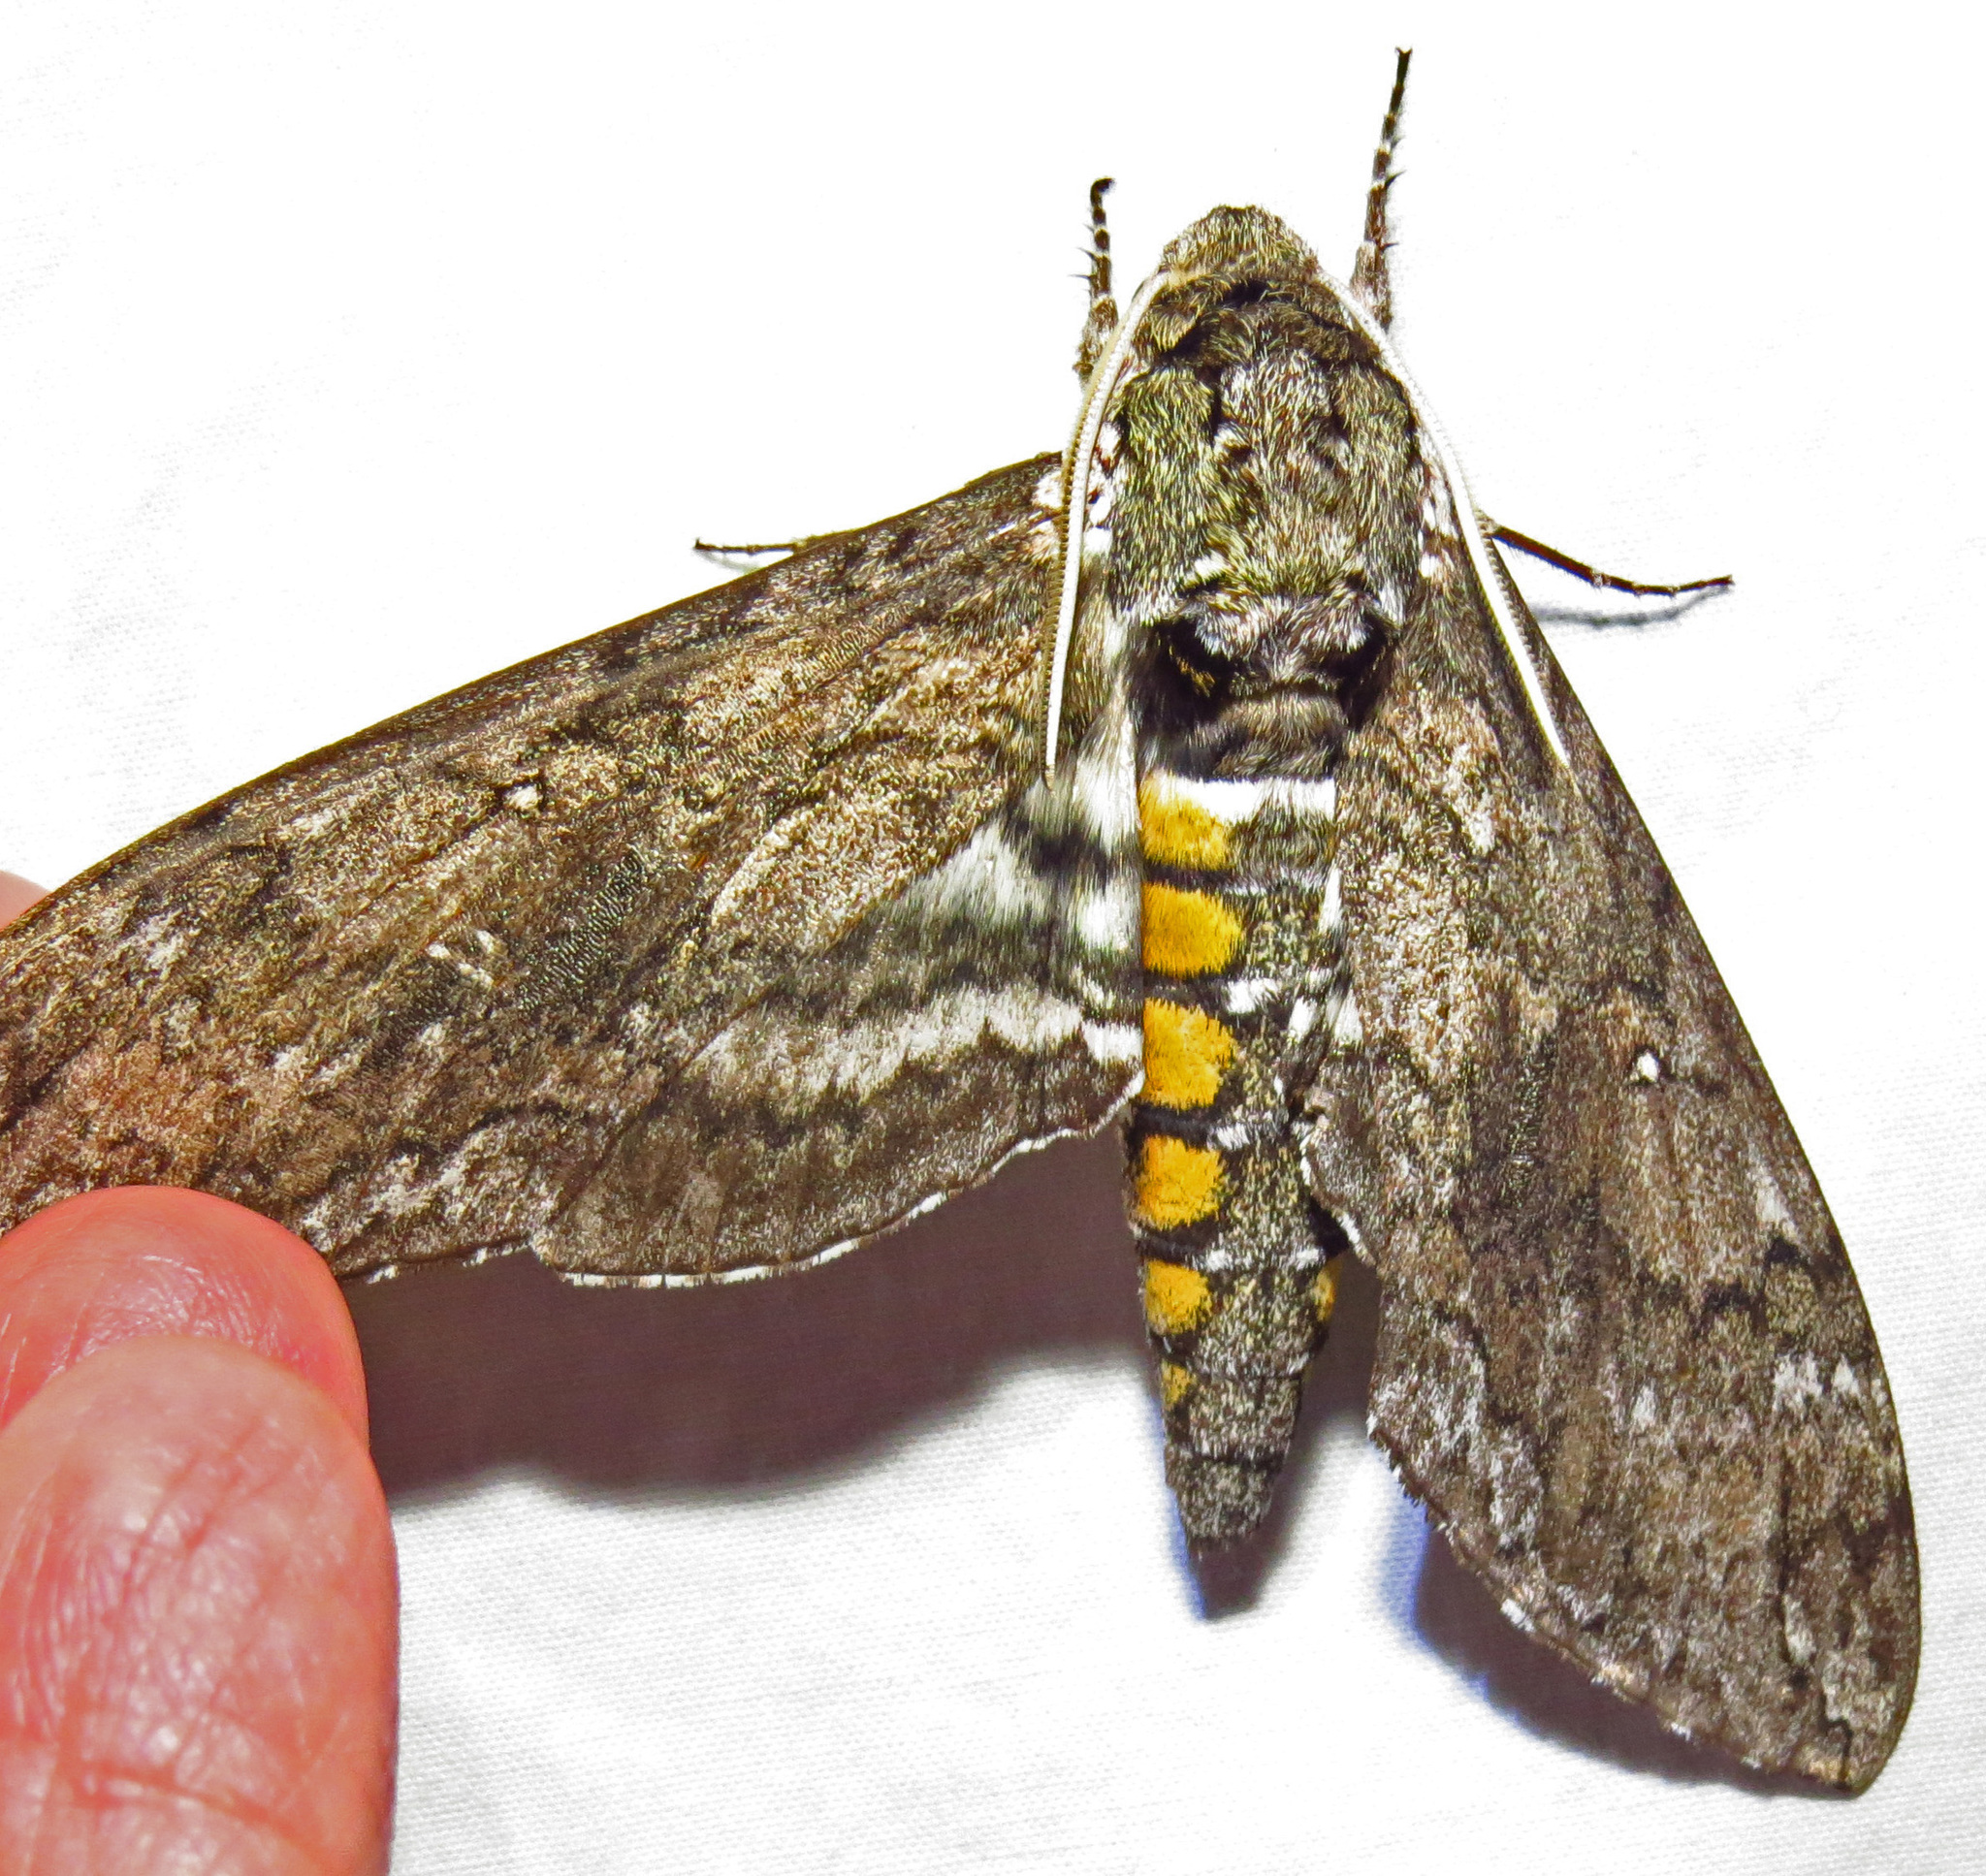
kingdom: Animalia
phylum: Arthropoda
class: Insecta
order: Lepidoptera
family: Sphingidae
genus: Manduca
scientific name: Manduca sexta
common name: Carolina sphinx
